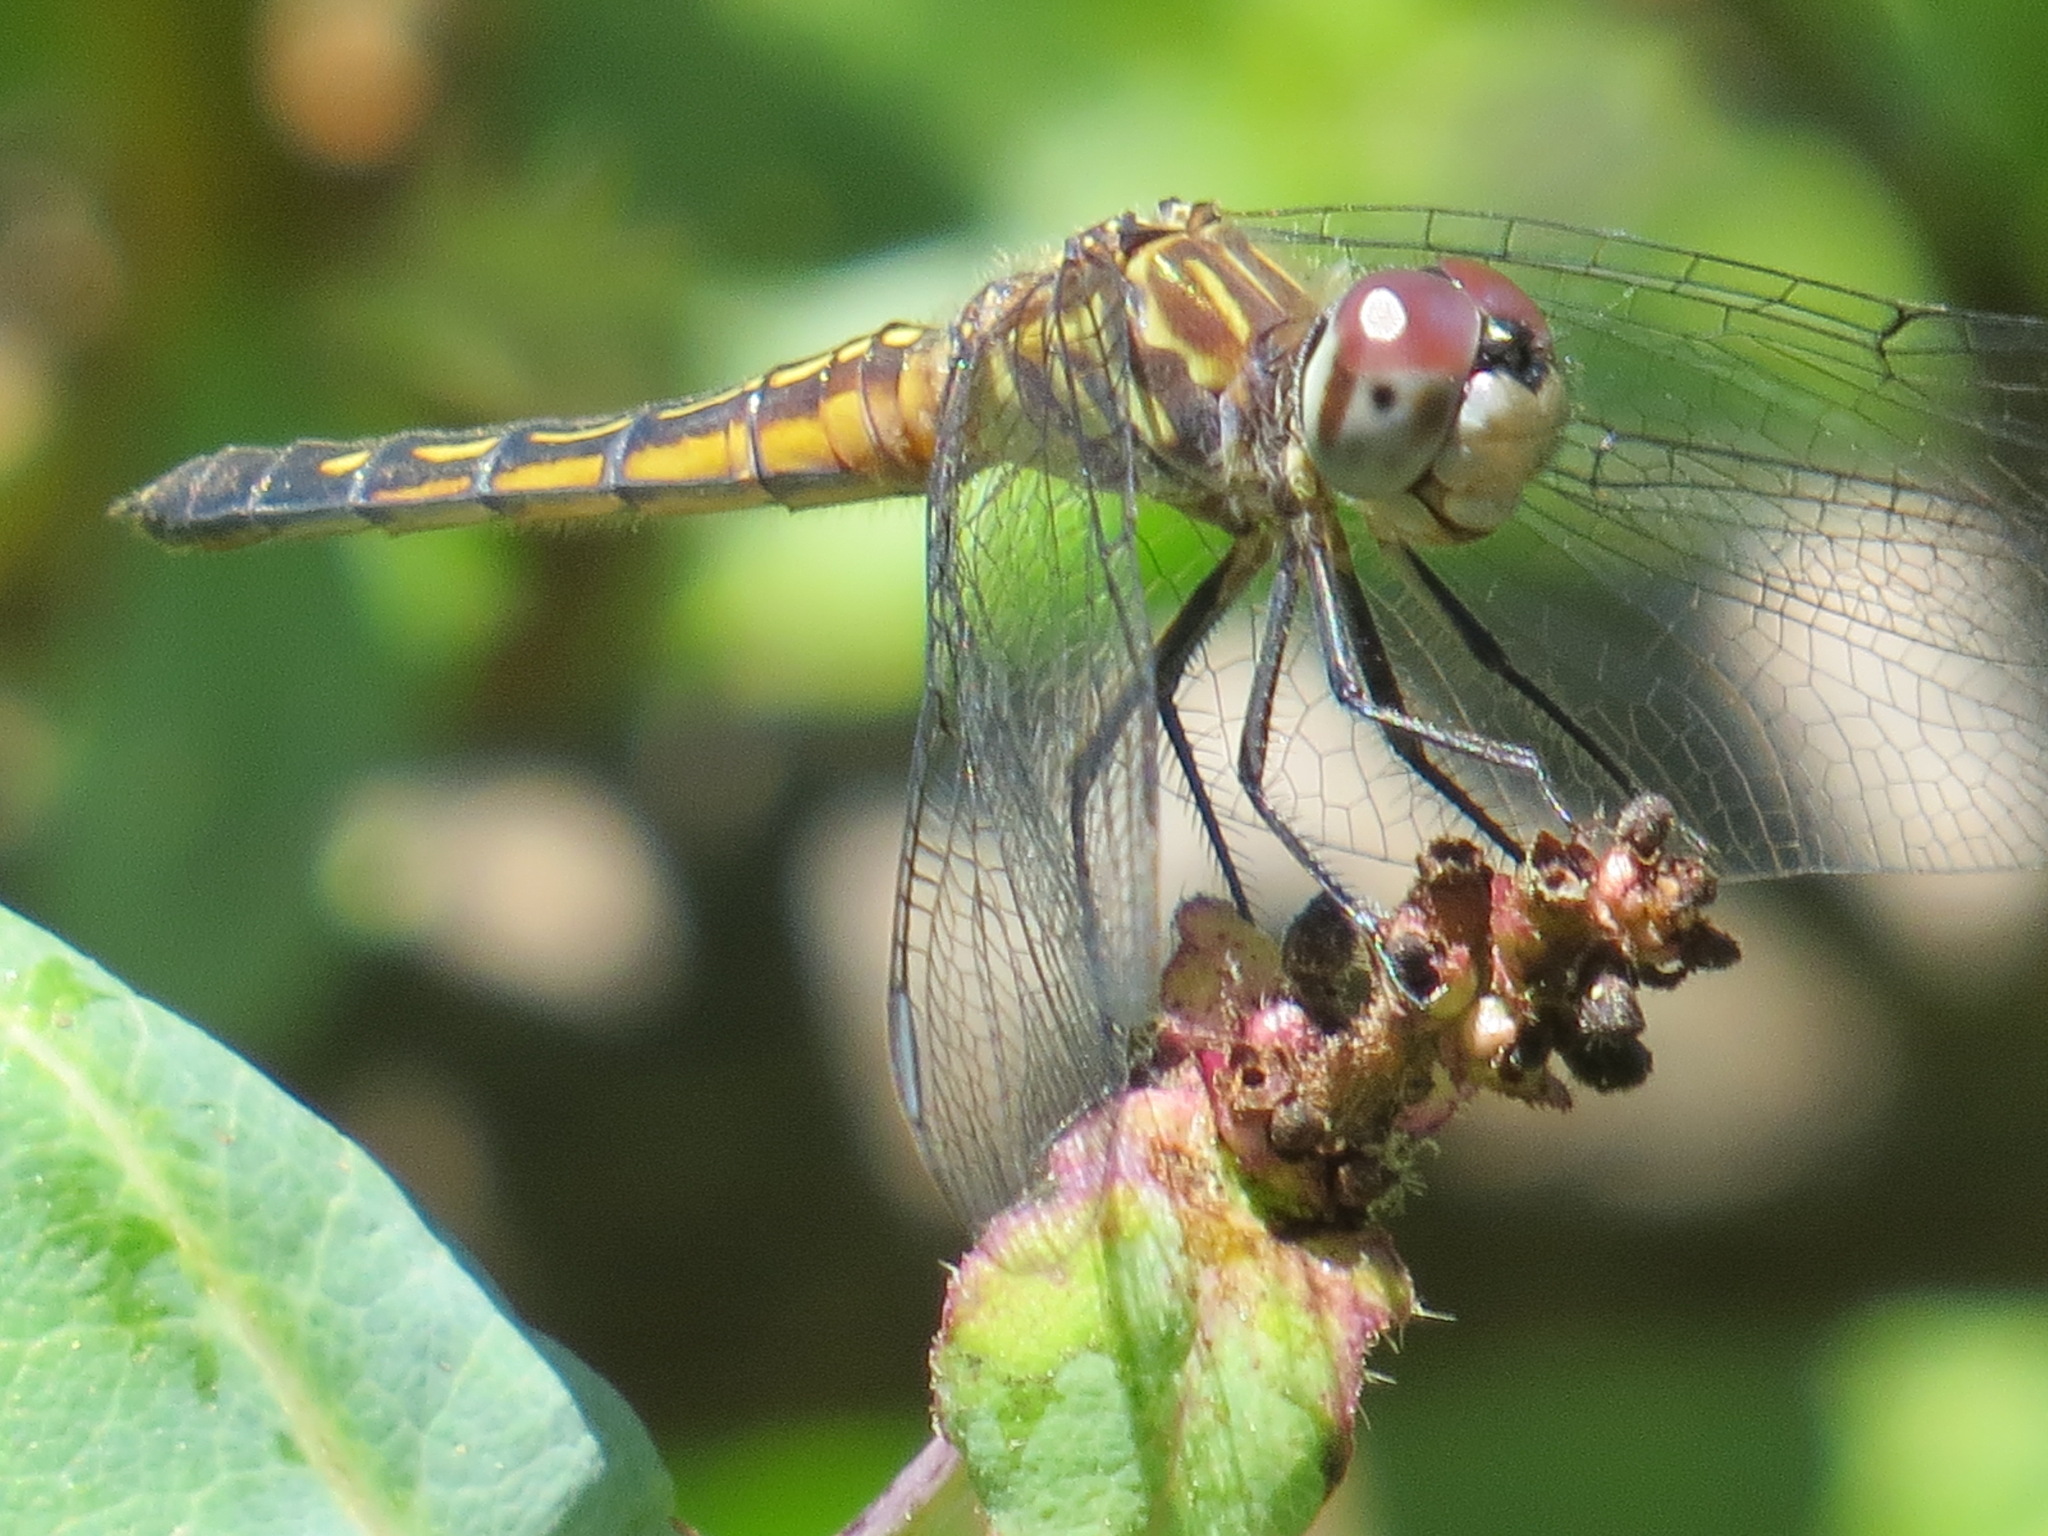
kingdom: Animalia
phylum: Arthropoda
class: Insecta
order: Odonata
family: Libellulidae
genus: Pachydiplax
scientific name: Pachydiplax longipennis
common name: Blue dasher
